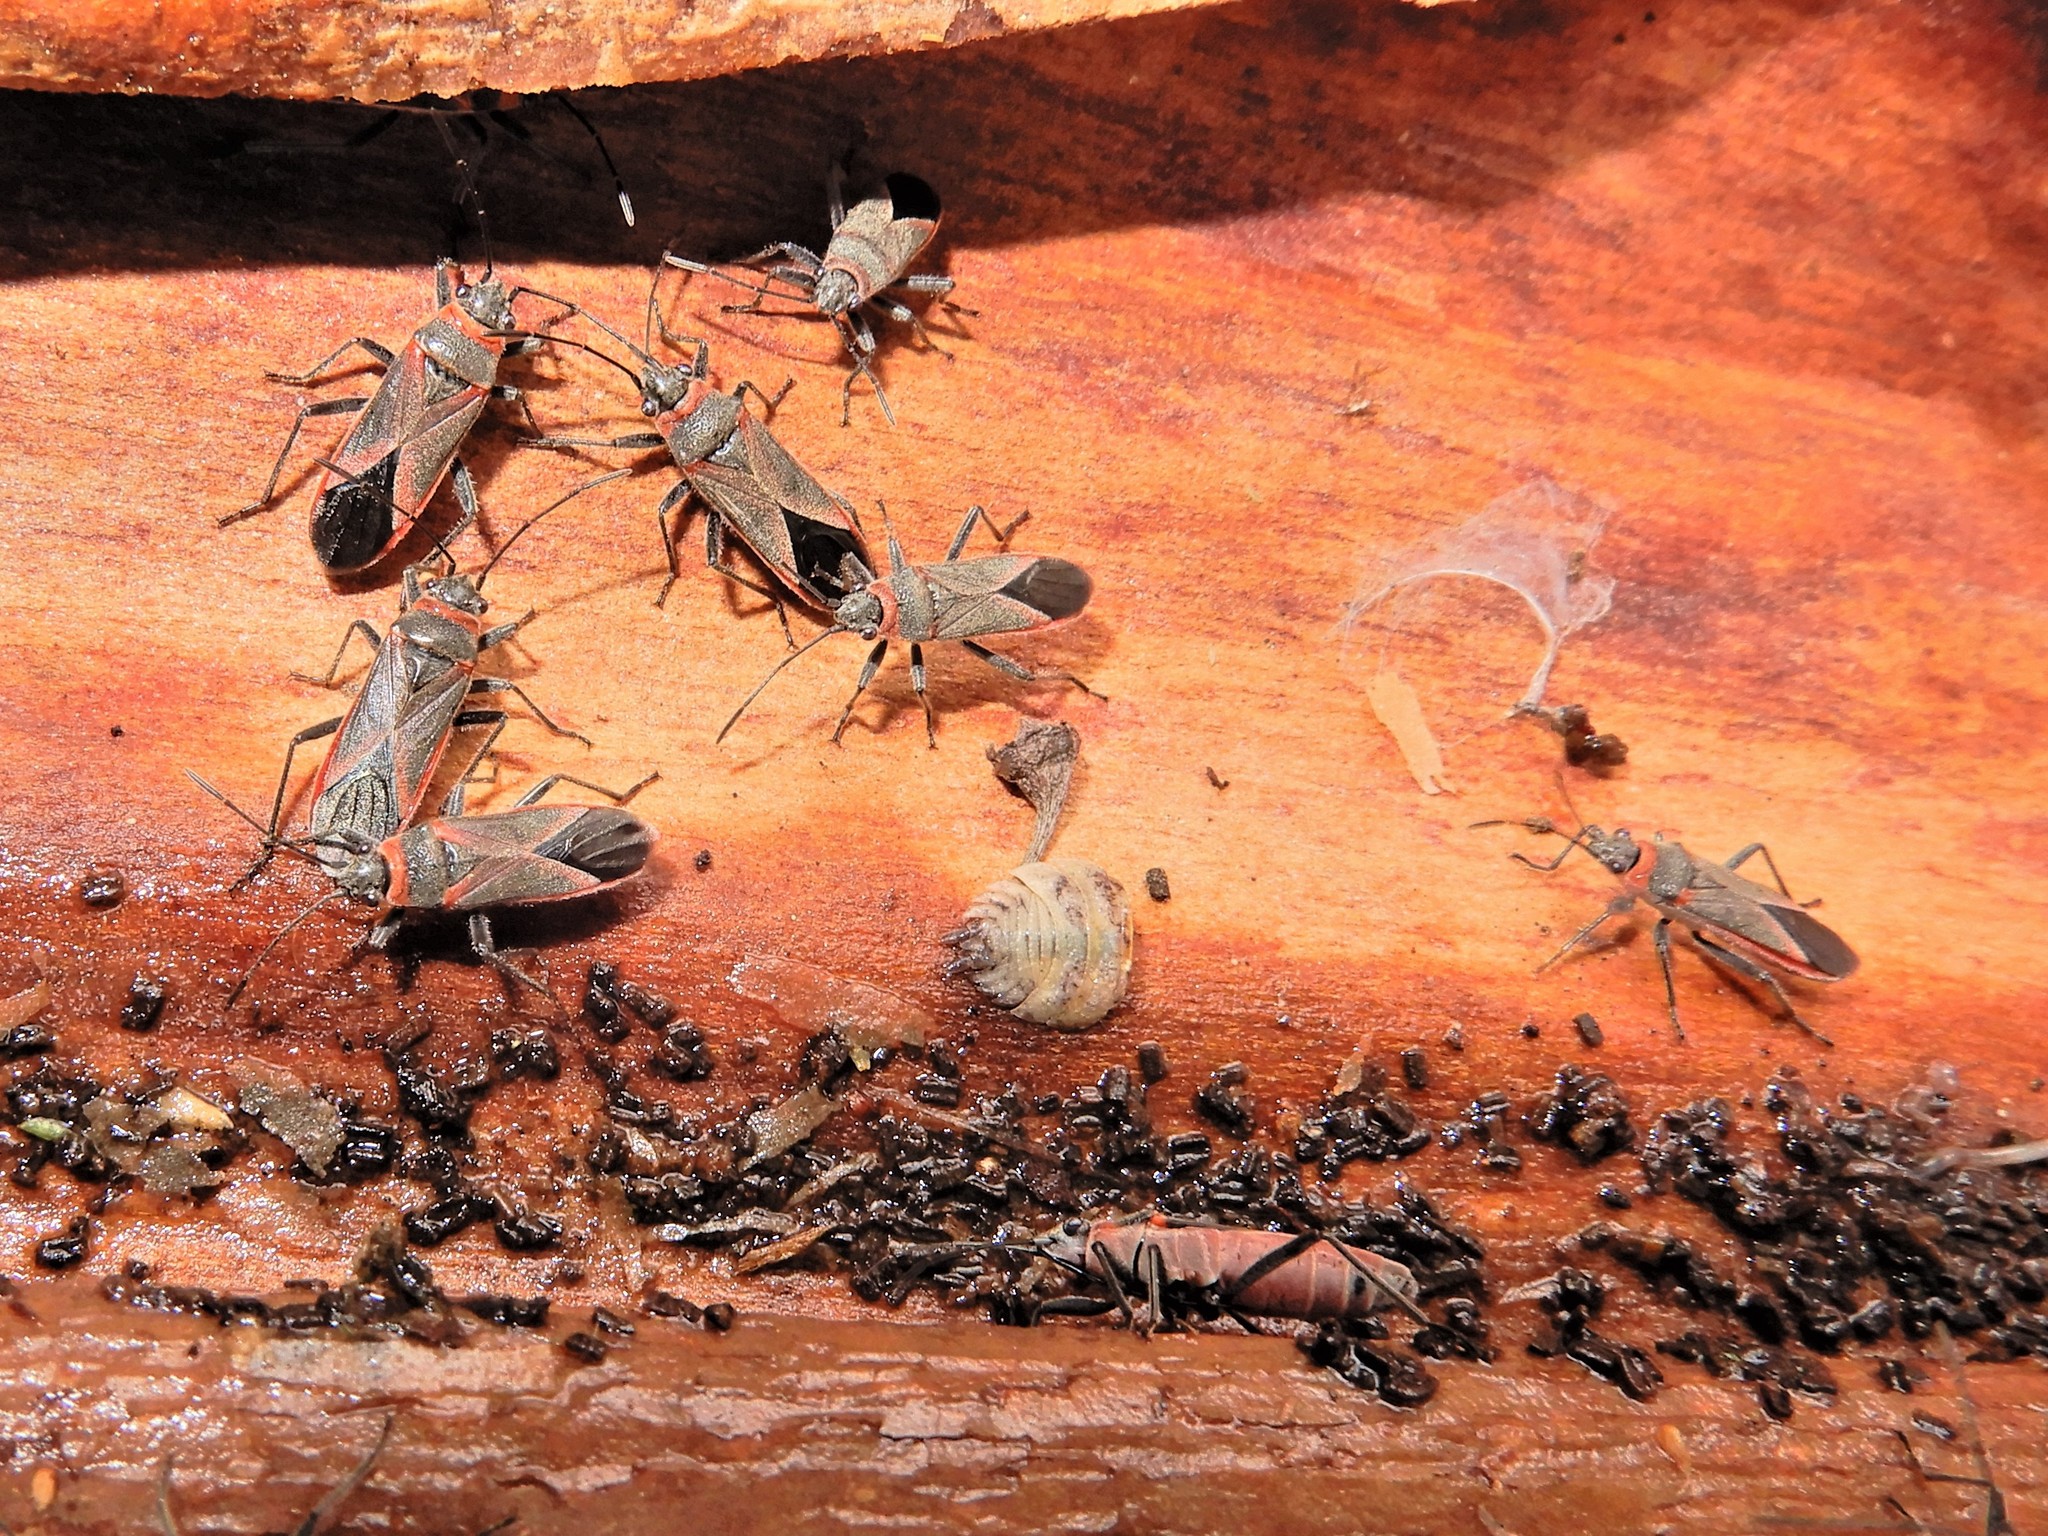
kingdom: Animalia
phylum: Arthropoda
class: Insecta
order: Hemiptera
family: Lygaeidae
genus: Arocatus
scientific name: Arocatus rusticus
